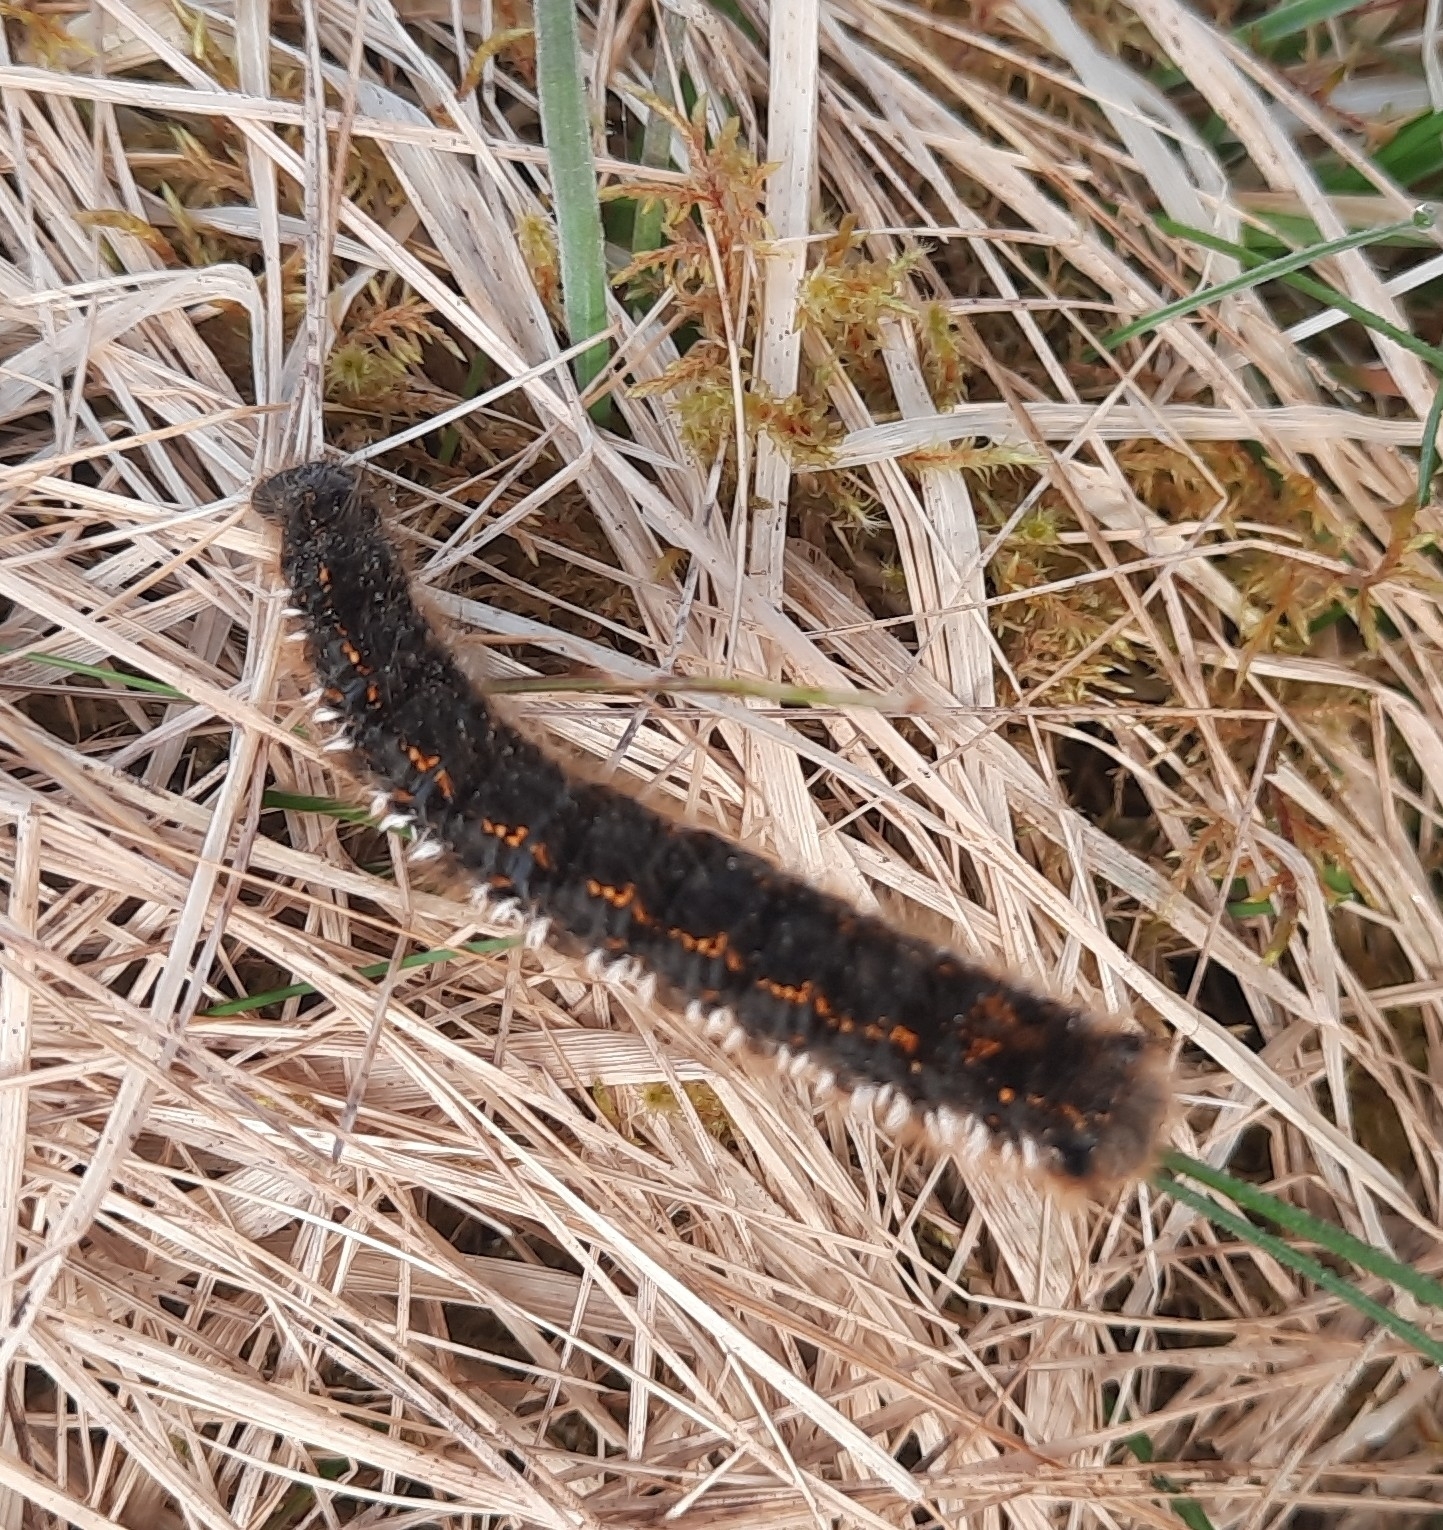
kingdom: Animalia
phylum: Arthropoda
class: Insecta
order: Lepidoptera
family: Lasiocampidae
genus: Euthrix
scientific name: Euthrix potatoria
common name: Drinker
